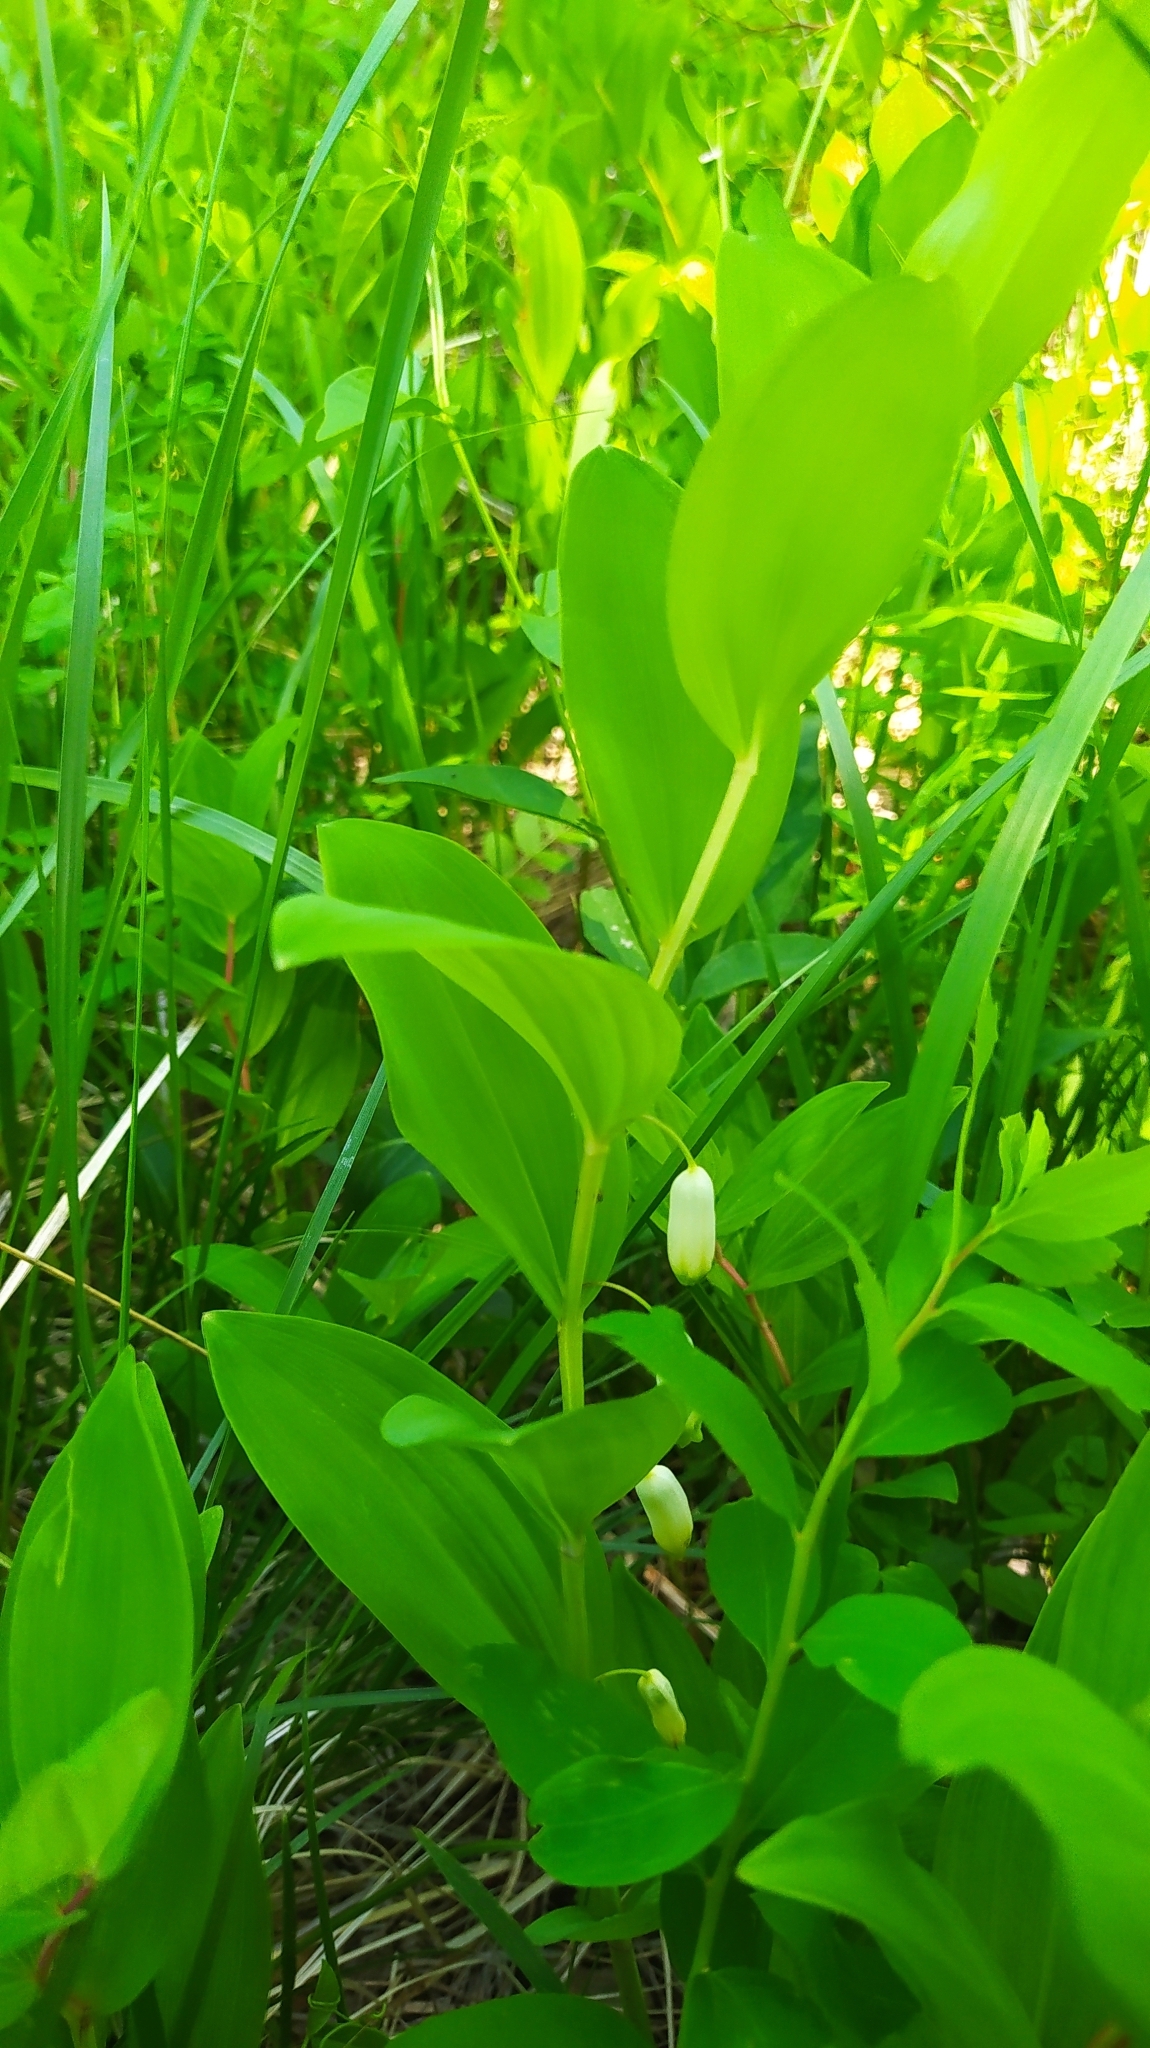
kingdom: Plantae
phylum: Tracheophyta
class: Liliopsida
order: Asparagales
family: Asparagaceae
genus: Polygonatum
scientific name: Polygonatum odoratum
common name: Angular solomon's-seal
